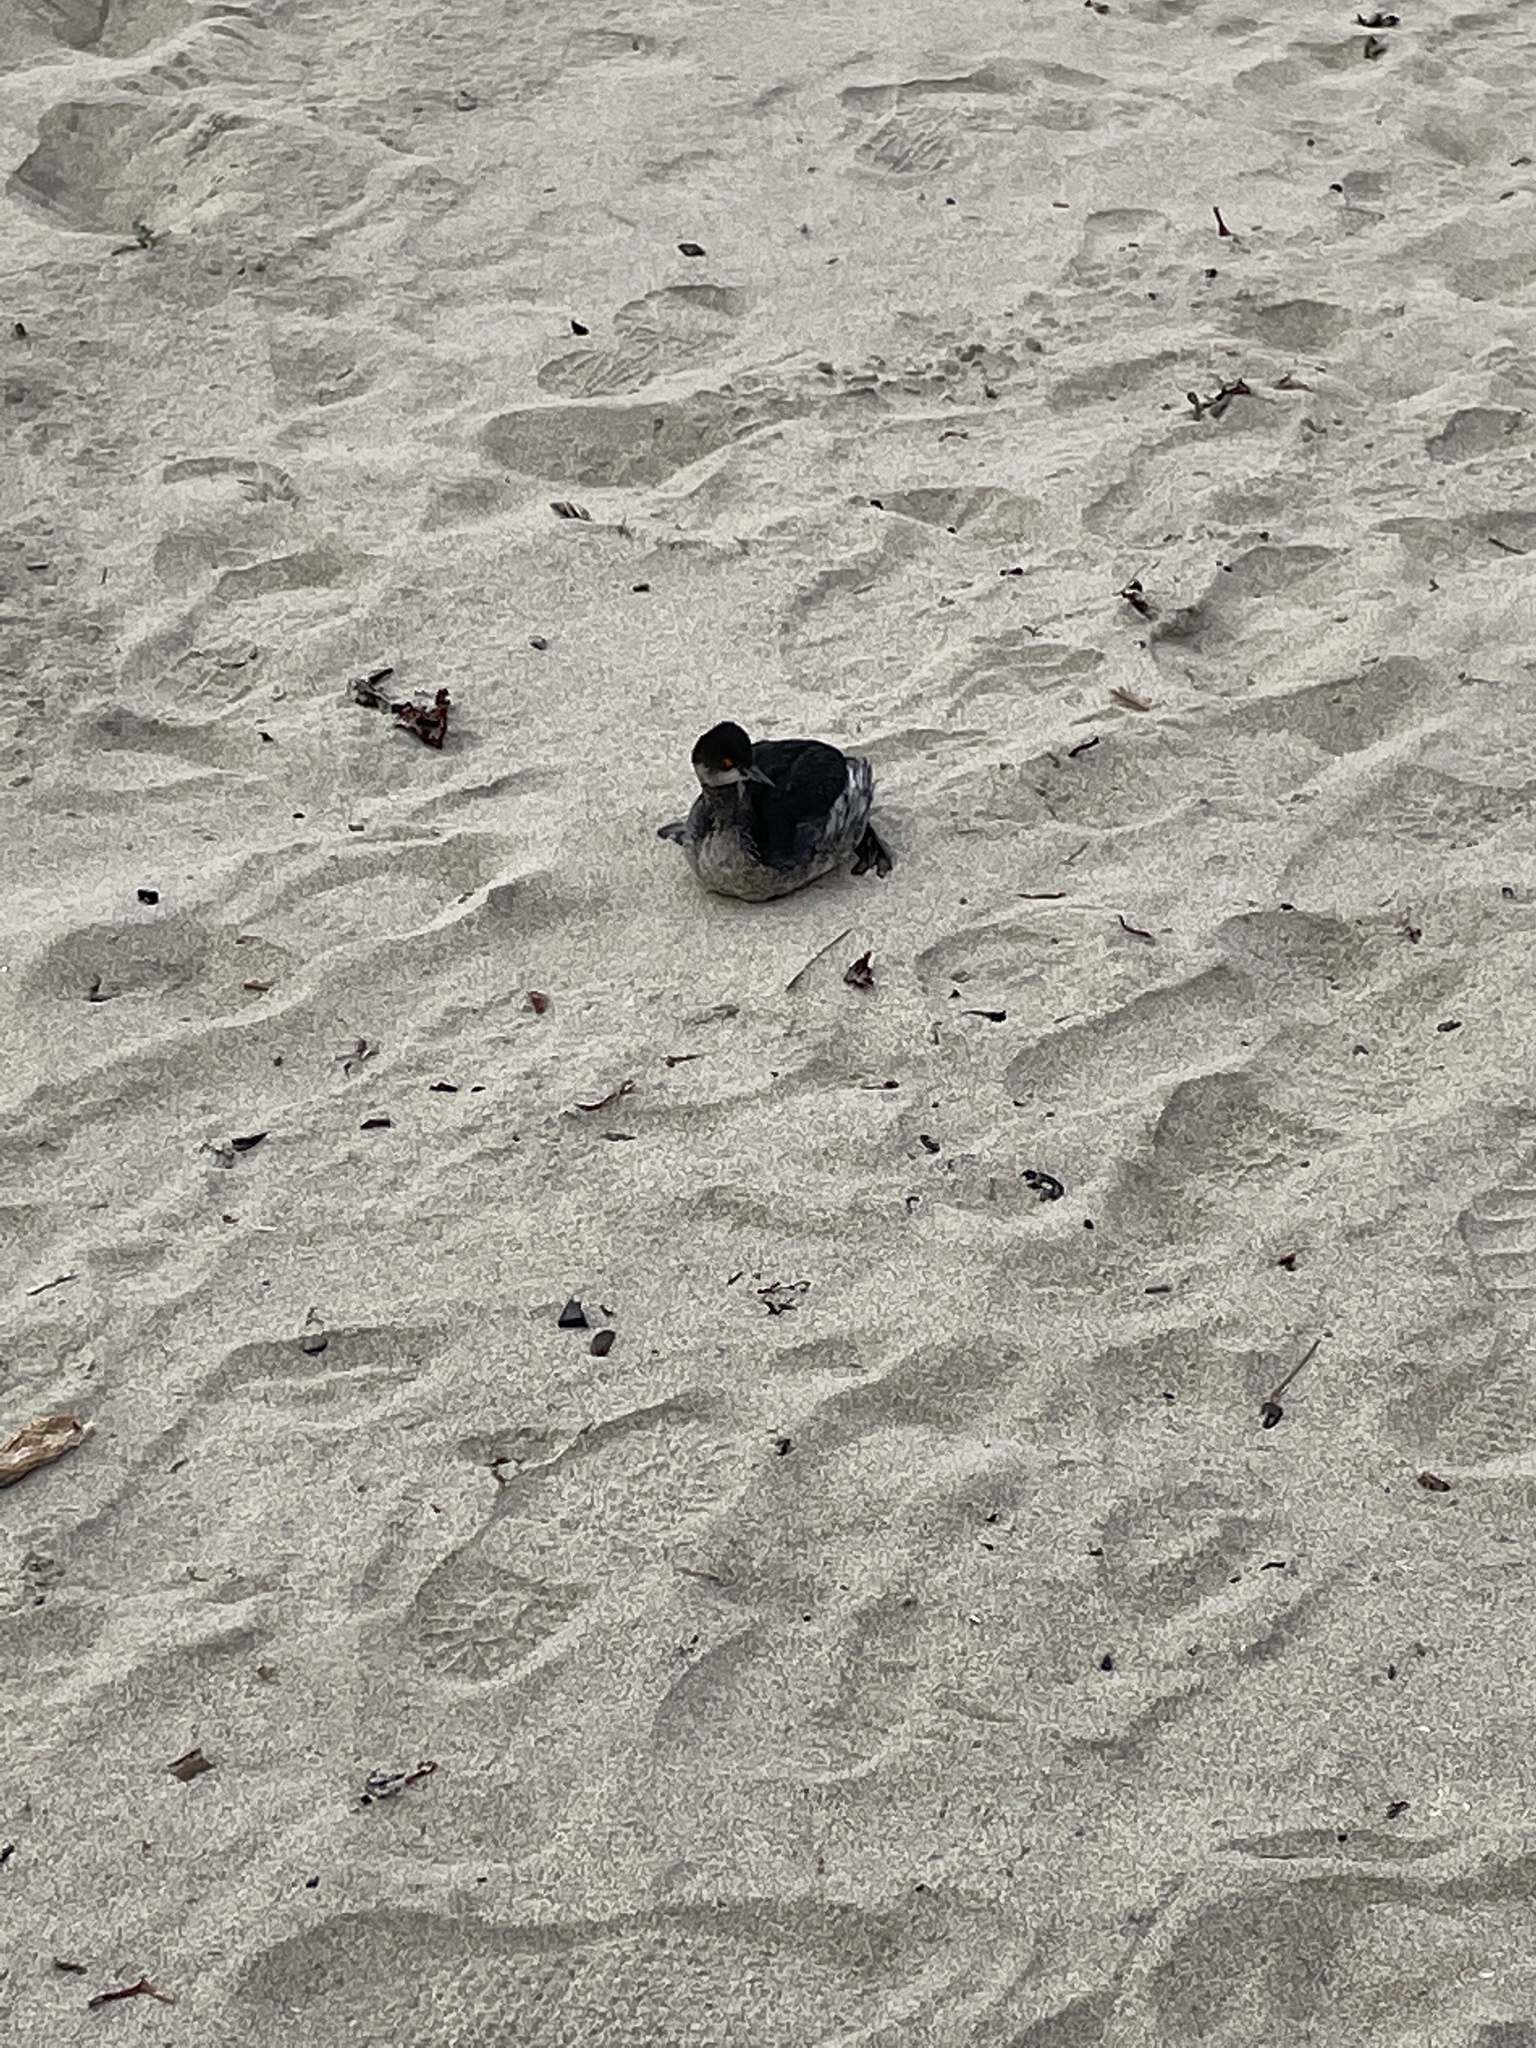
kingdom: Animalia
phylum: Chordata
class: Aves
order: Podicipediformes
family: Podicipedidae
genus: Podiceps
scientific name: Podiceps nigricollis
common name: Black-necked grebe
